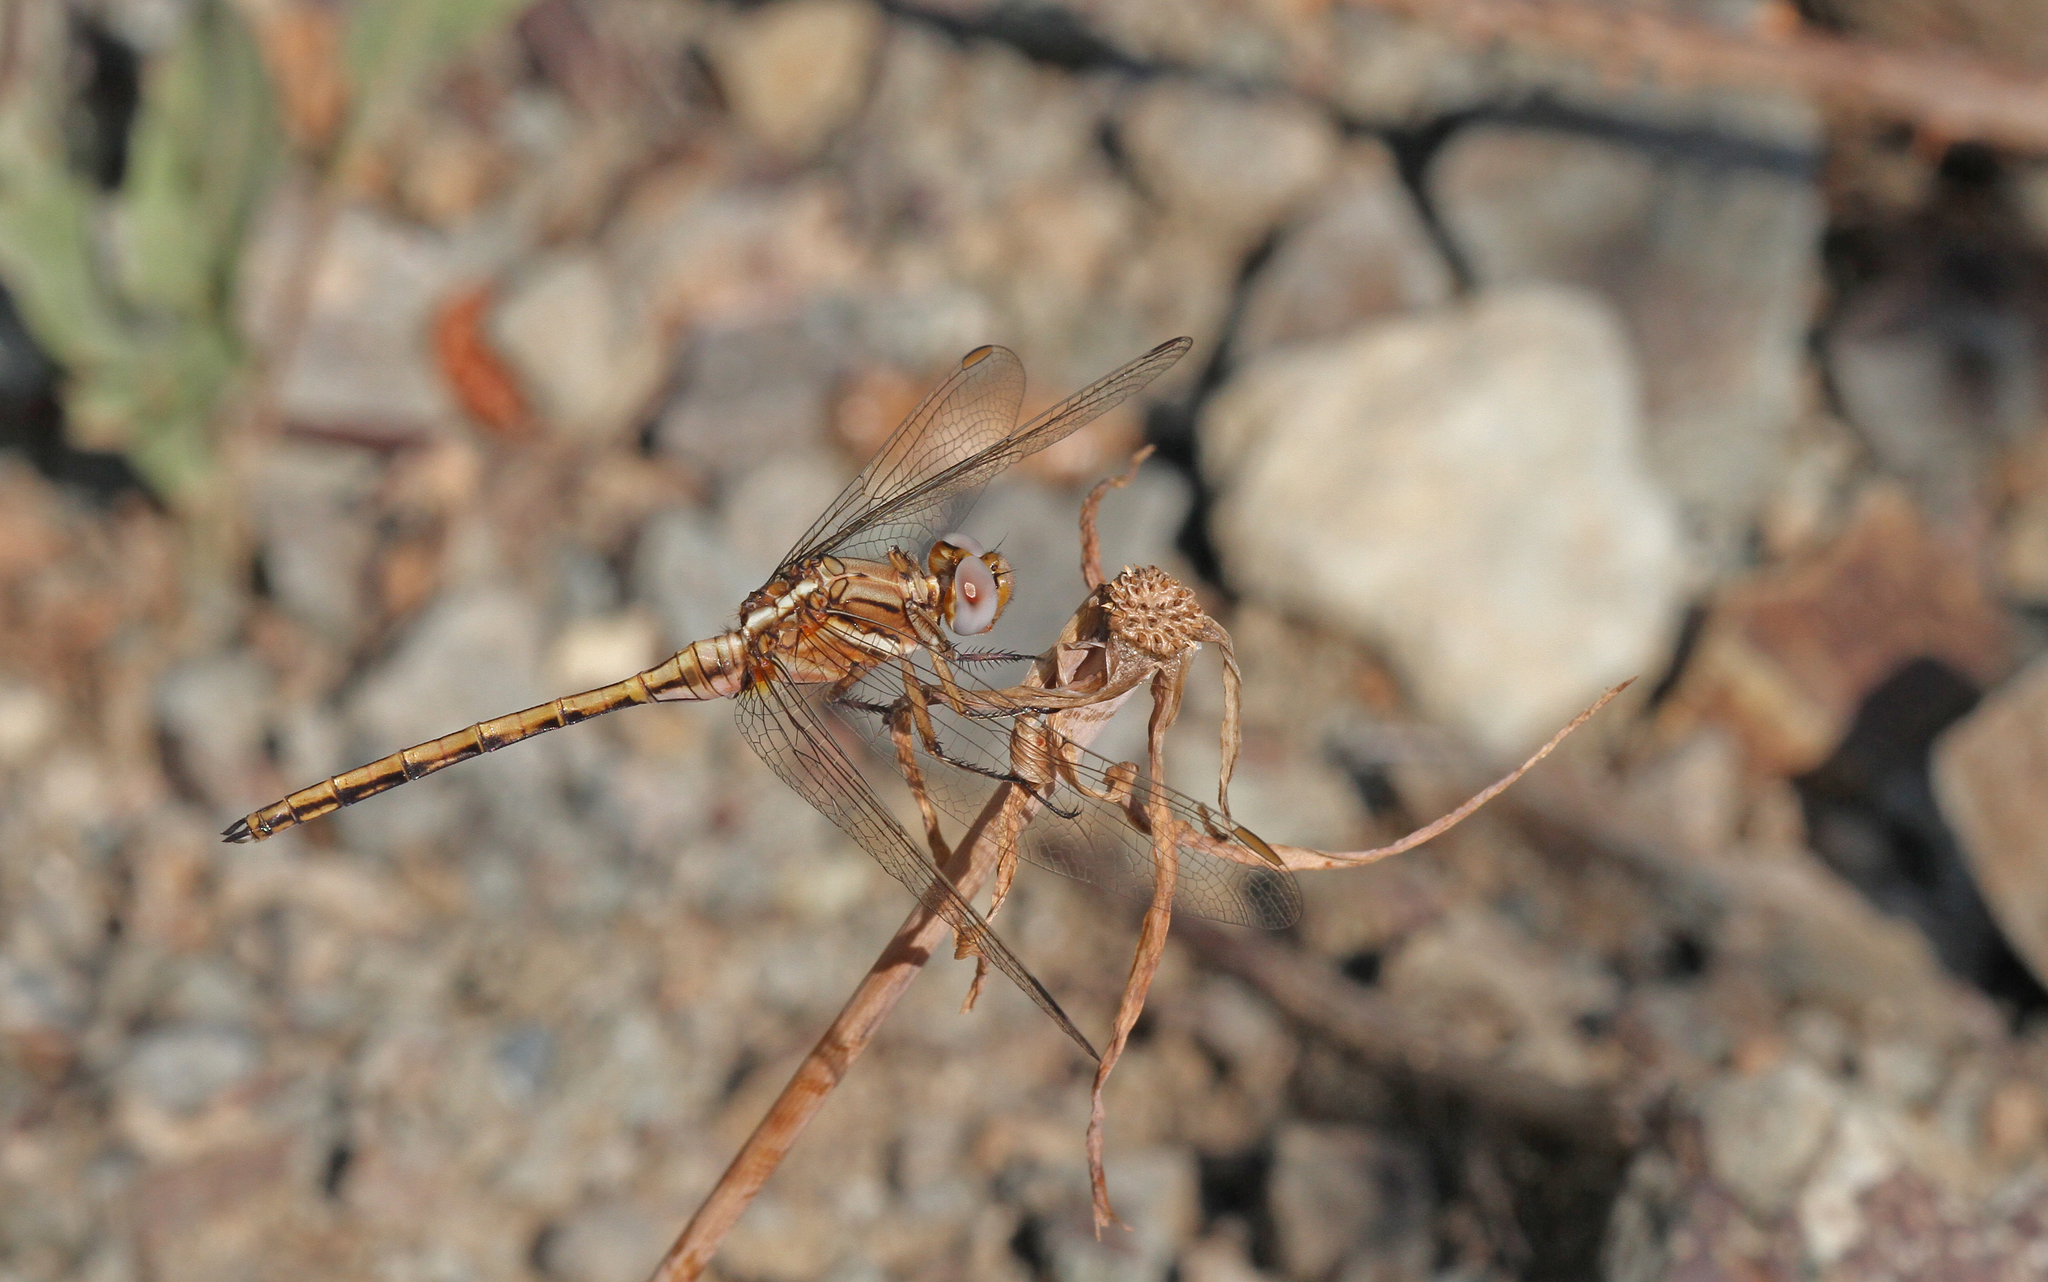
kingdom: Animalia
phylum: Arthropoda
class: Insecta
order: Odonata
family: Libellulidae
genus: Orthetrum
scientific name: Orthetrum chrysostigma
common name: Epaulet skimmer
